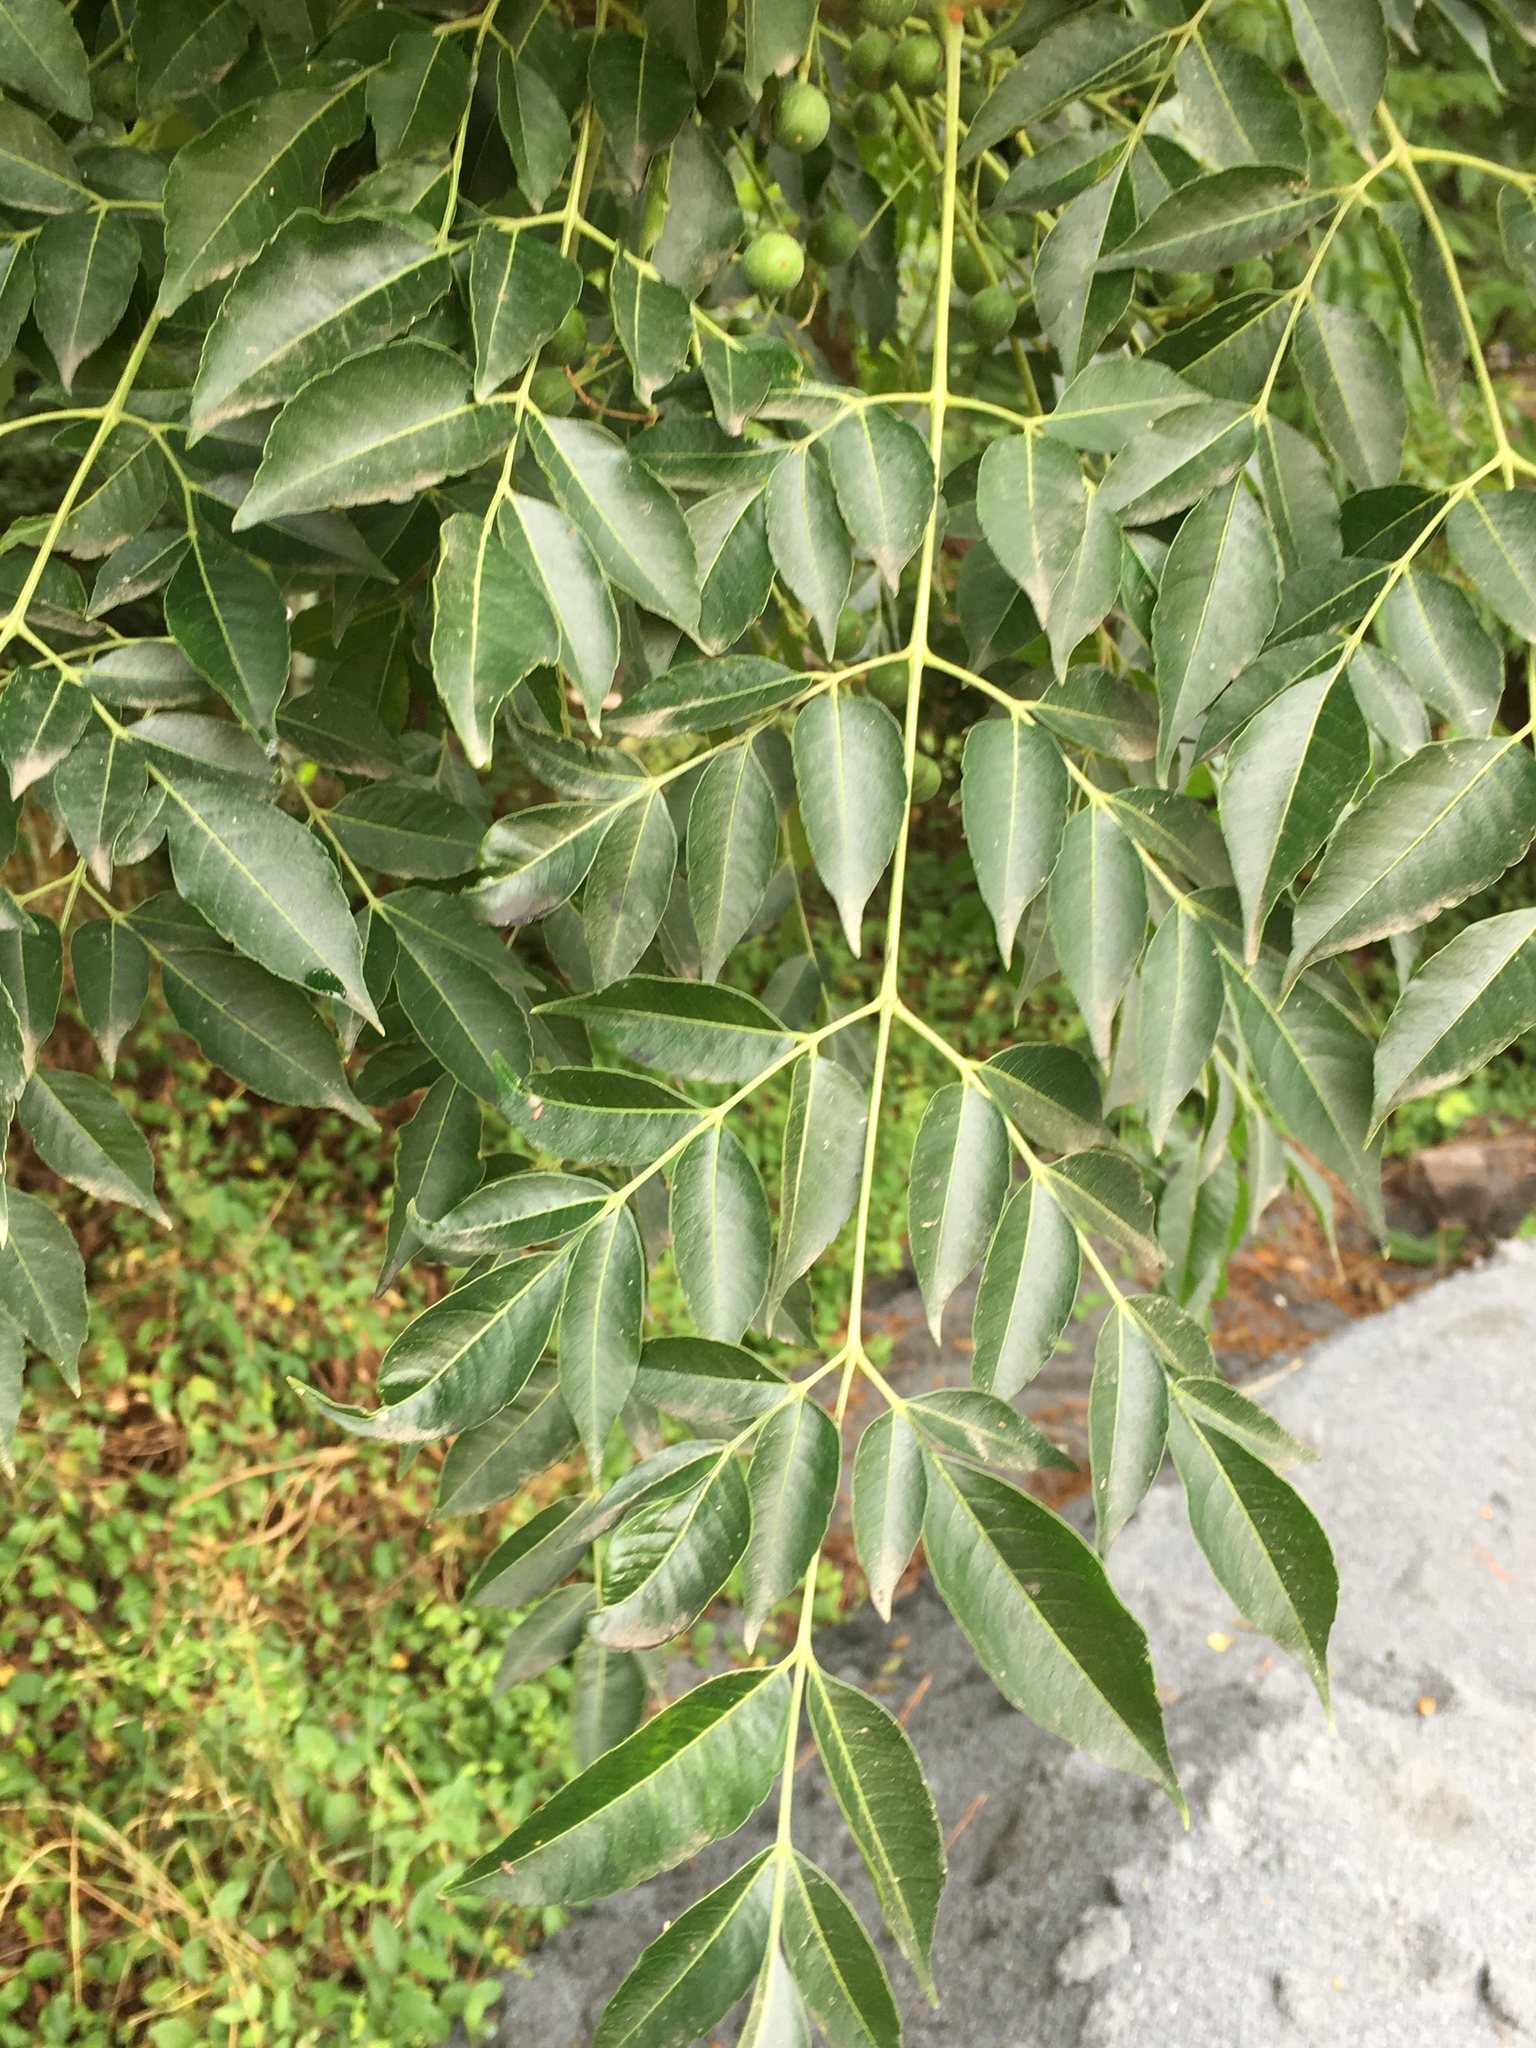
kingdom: Plantae
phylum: Tracheophyta
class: Magnoliopsida
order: Sapindales
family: Meliaceae
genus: Melia
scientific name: Melia azedarach
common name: Chinaberrytree
